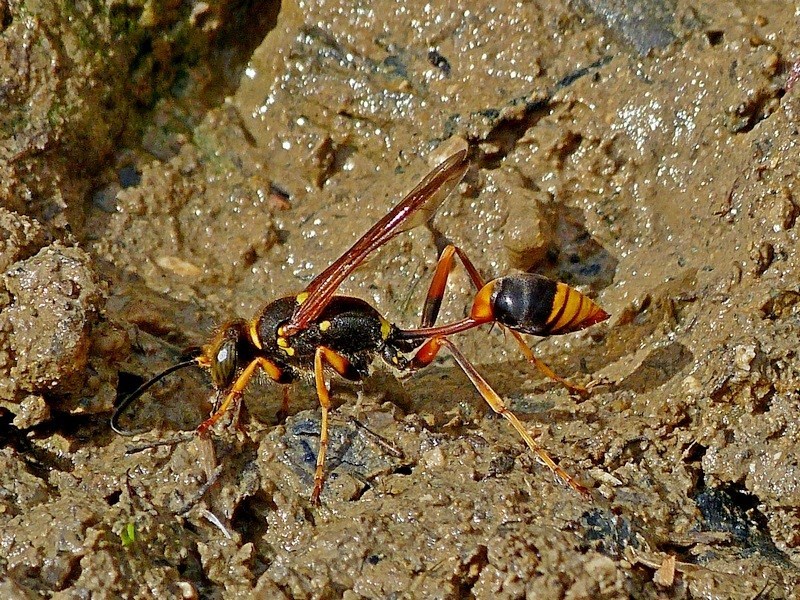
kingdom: Animalia
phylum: Arthropoda
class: Insecta
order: Hymenoptera
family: Sphecidae
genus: Sceliphron
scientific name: Sceliphron formosum
